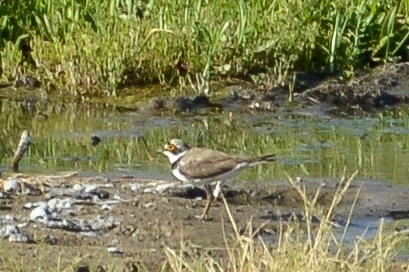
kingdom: Animalia
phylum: Chordata
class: Aves
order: Charadriiformes
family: Charadriidae
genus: Charadrius
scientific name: Charadrius dubius
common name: Little ringed plover
